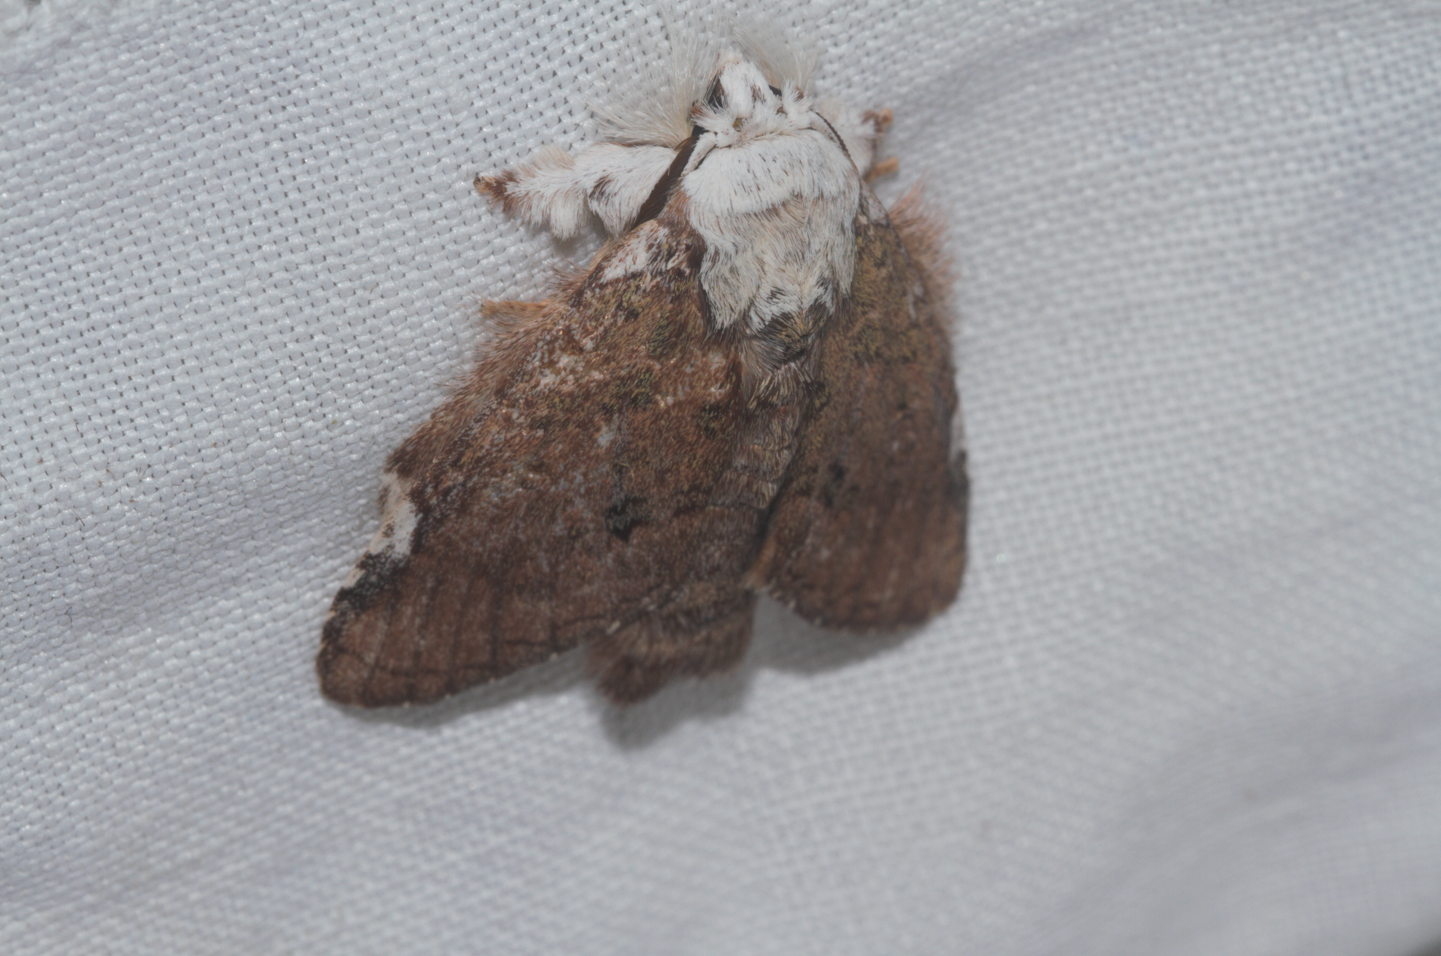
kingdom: Animalia
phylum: Arthropoda
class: Insecta
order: Lepidoptera
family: Notodontidae
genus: Farigia
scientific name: Farigia pallida
